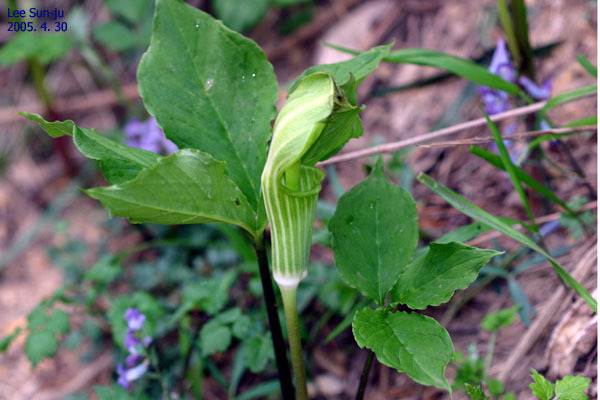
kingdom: Plantae
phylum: Tracheophyta
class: Liliopsida
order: Alismatales
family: Araceae
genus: Arisaema
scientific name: Arisaema amurense
